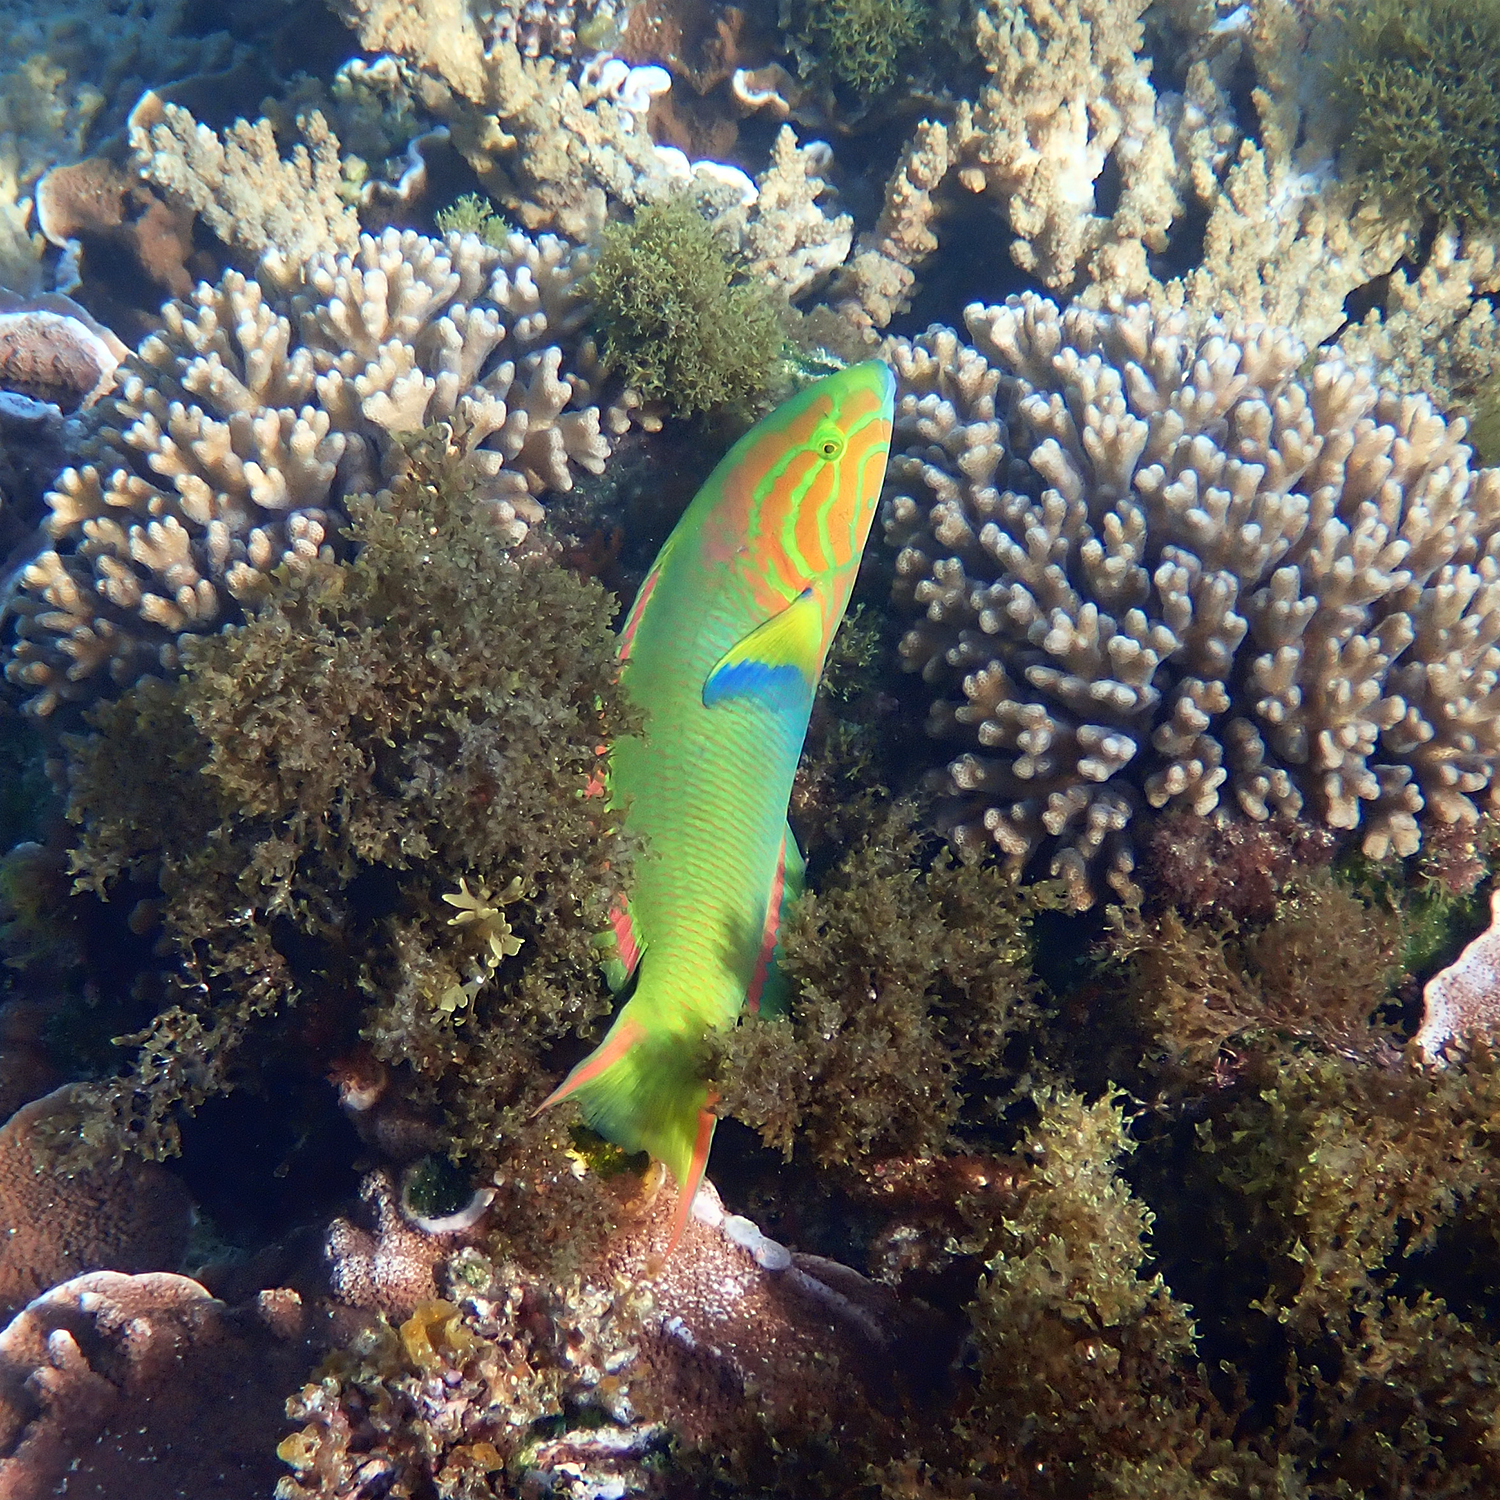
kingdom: Animalia
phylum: Chordata
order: Perciformes
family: Labridae
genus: Thalassoma
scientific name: Thalassoma lutescens
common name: Green moon wrasse
